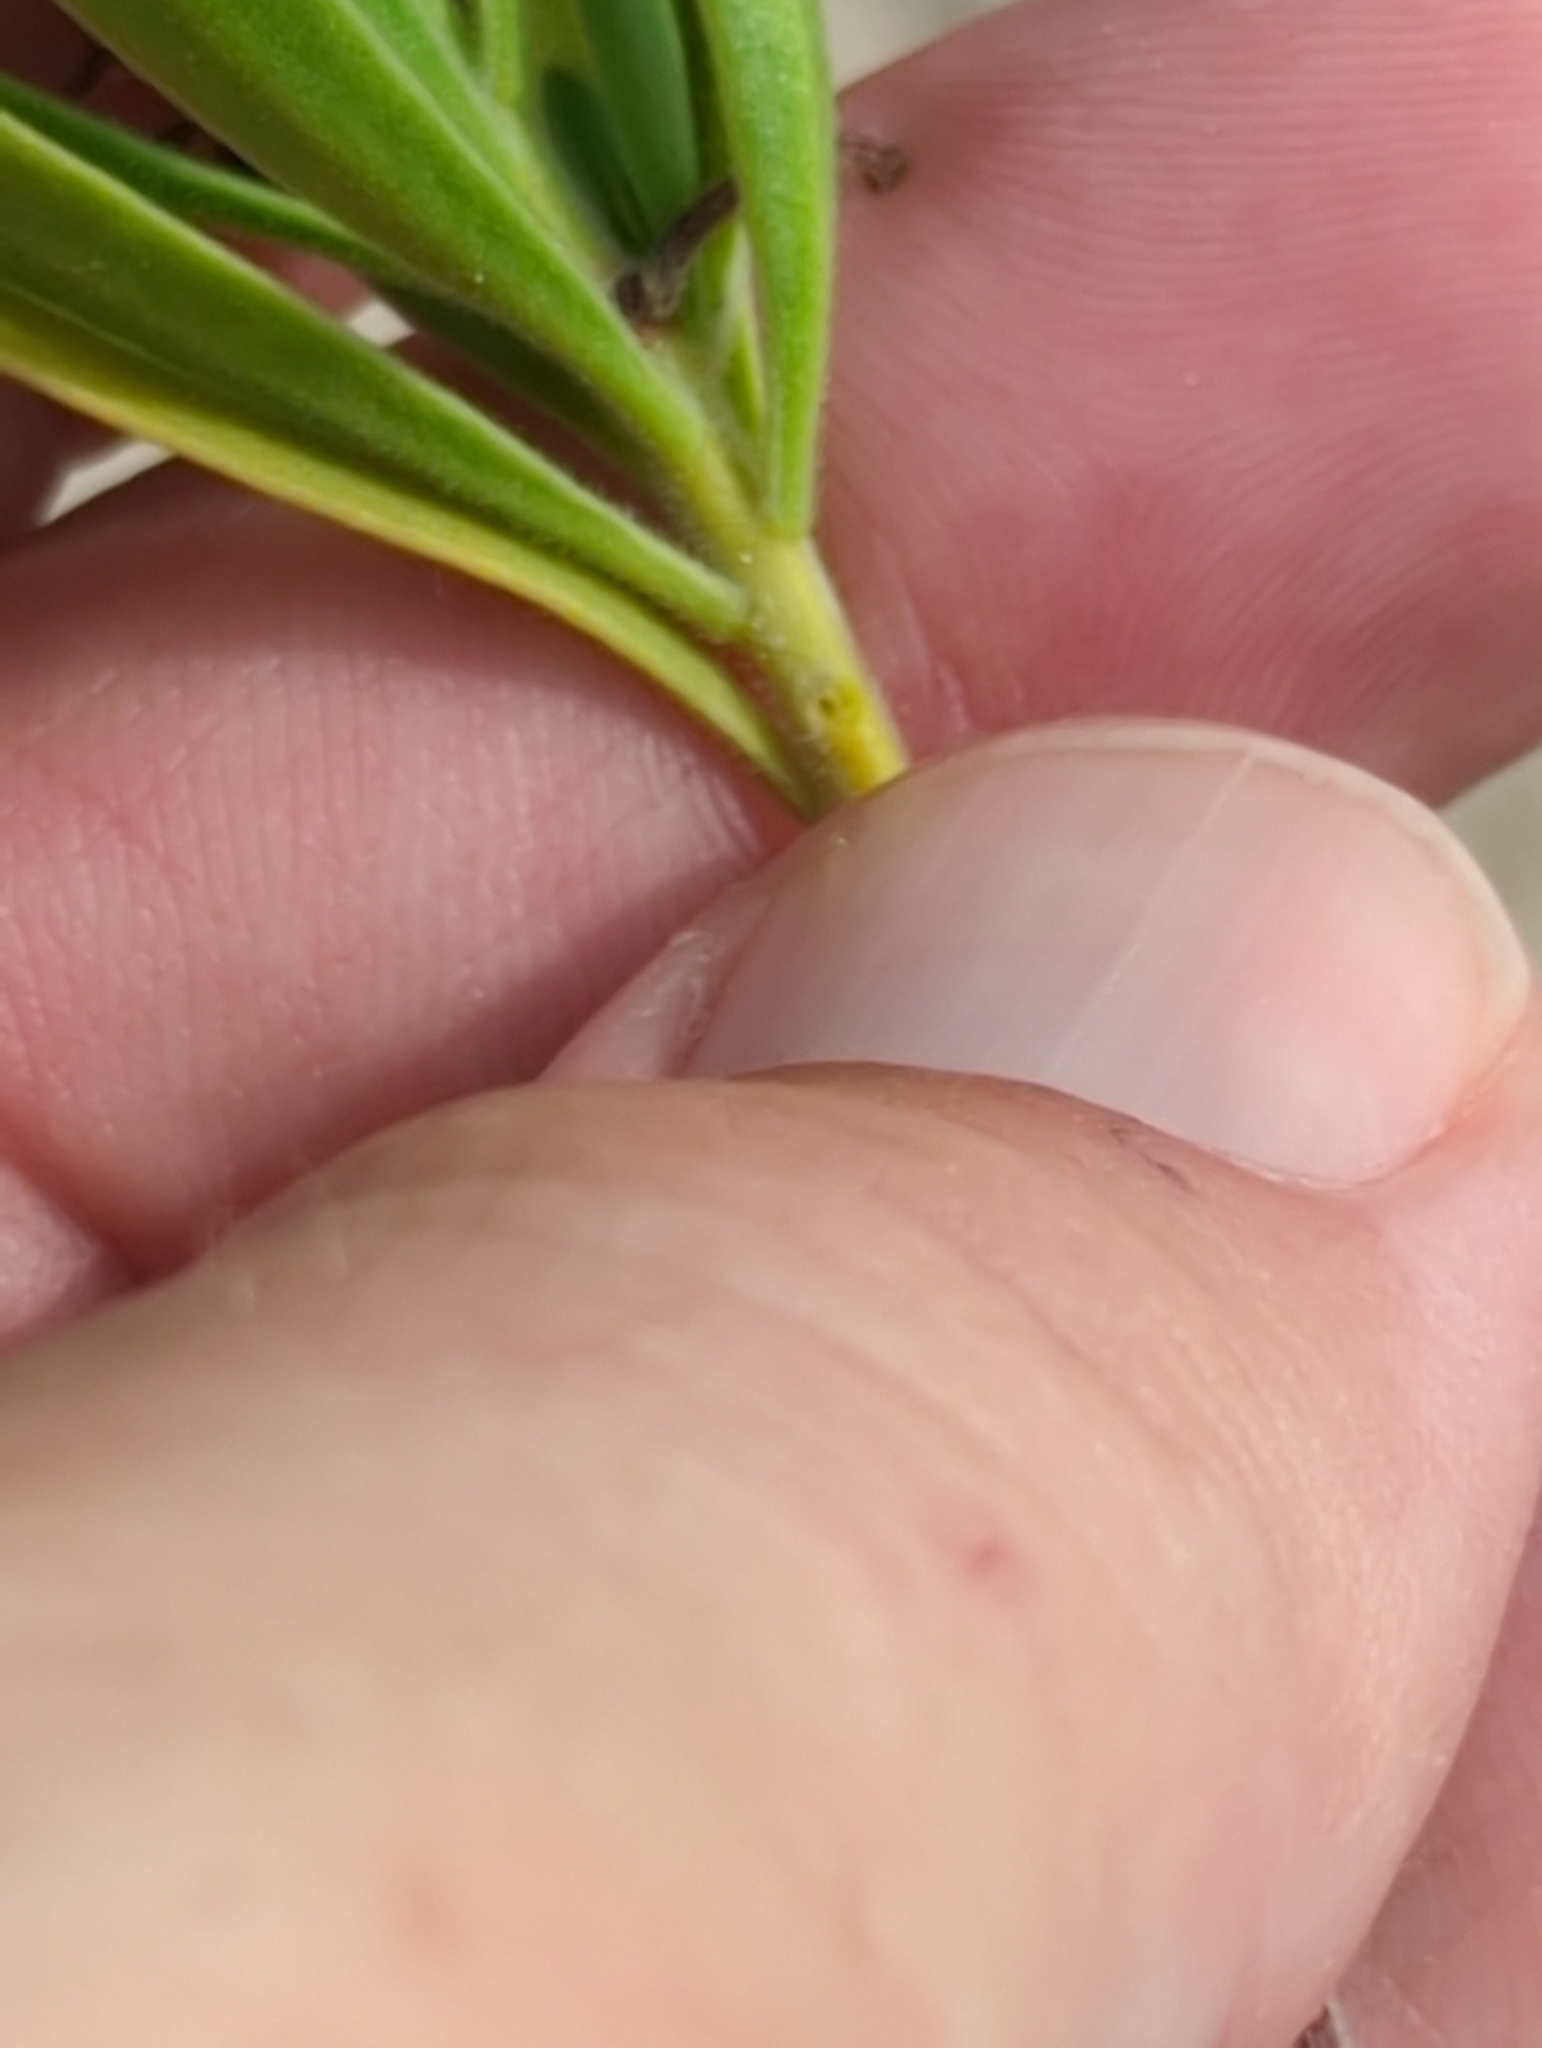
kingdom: Plantae
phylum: Tracheophyta
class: Magnoliopsida
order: Fabales
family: Surianaceae
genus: Suriana
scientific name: Suriana maritima
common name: Bay-cedar
